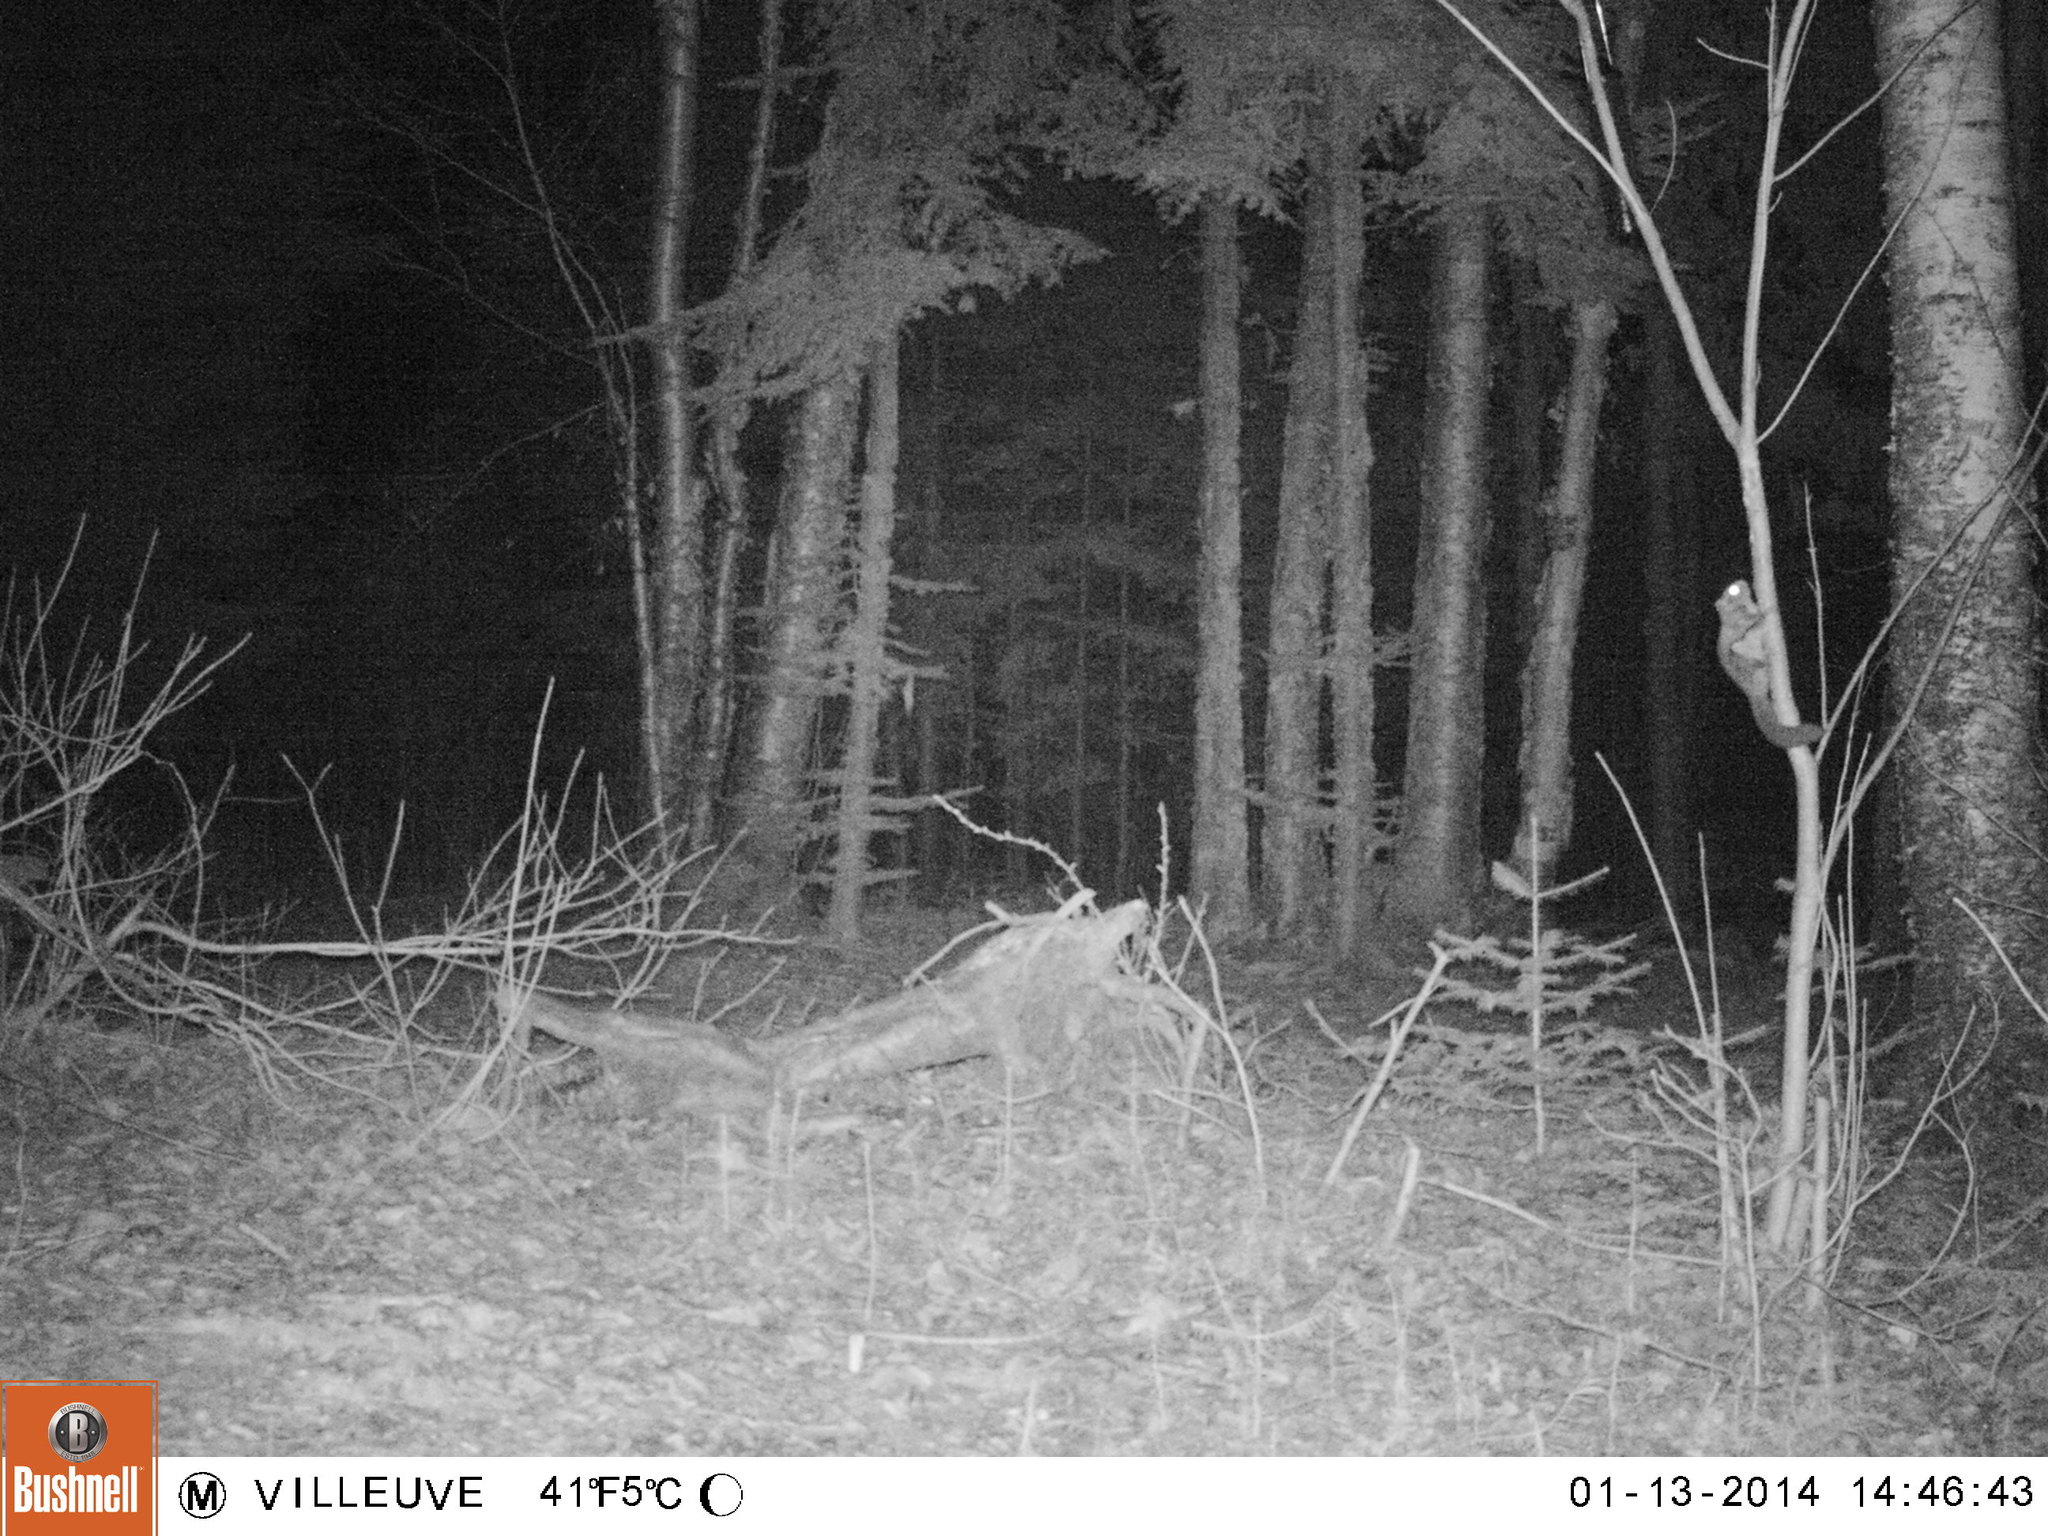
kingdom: Animalia
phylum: Chordata
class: Mammalia
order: Rodentia
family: Sciuridae
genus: Glaucomys
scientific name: Glaucomys sabrinus
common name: Northern flying squirrel
